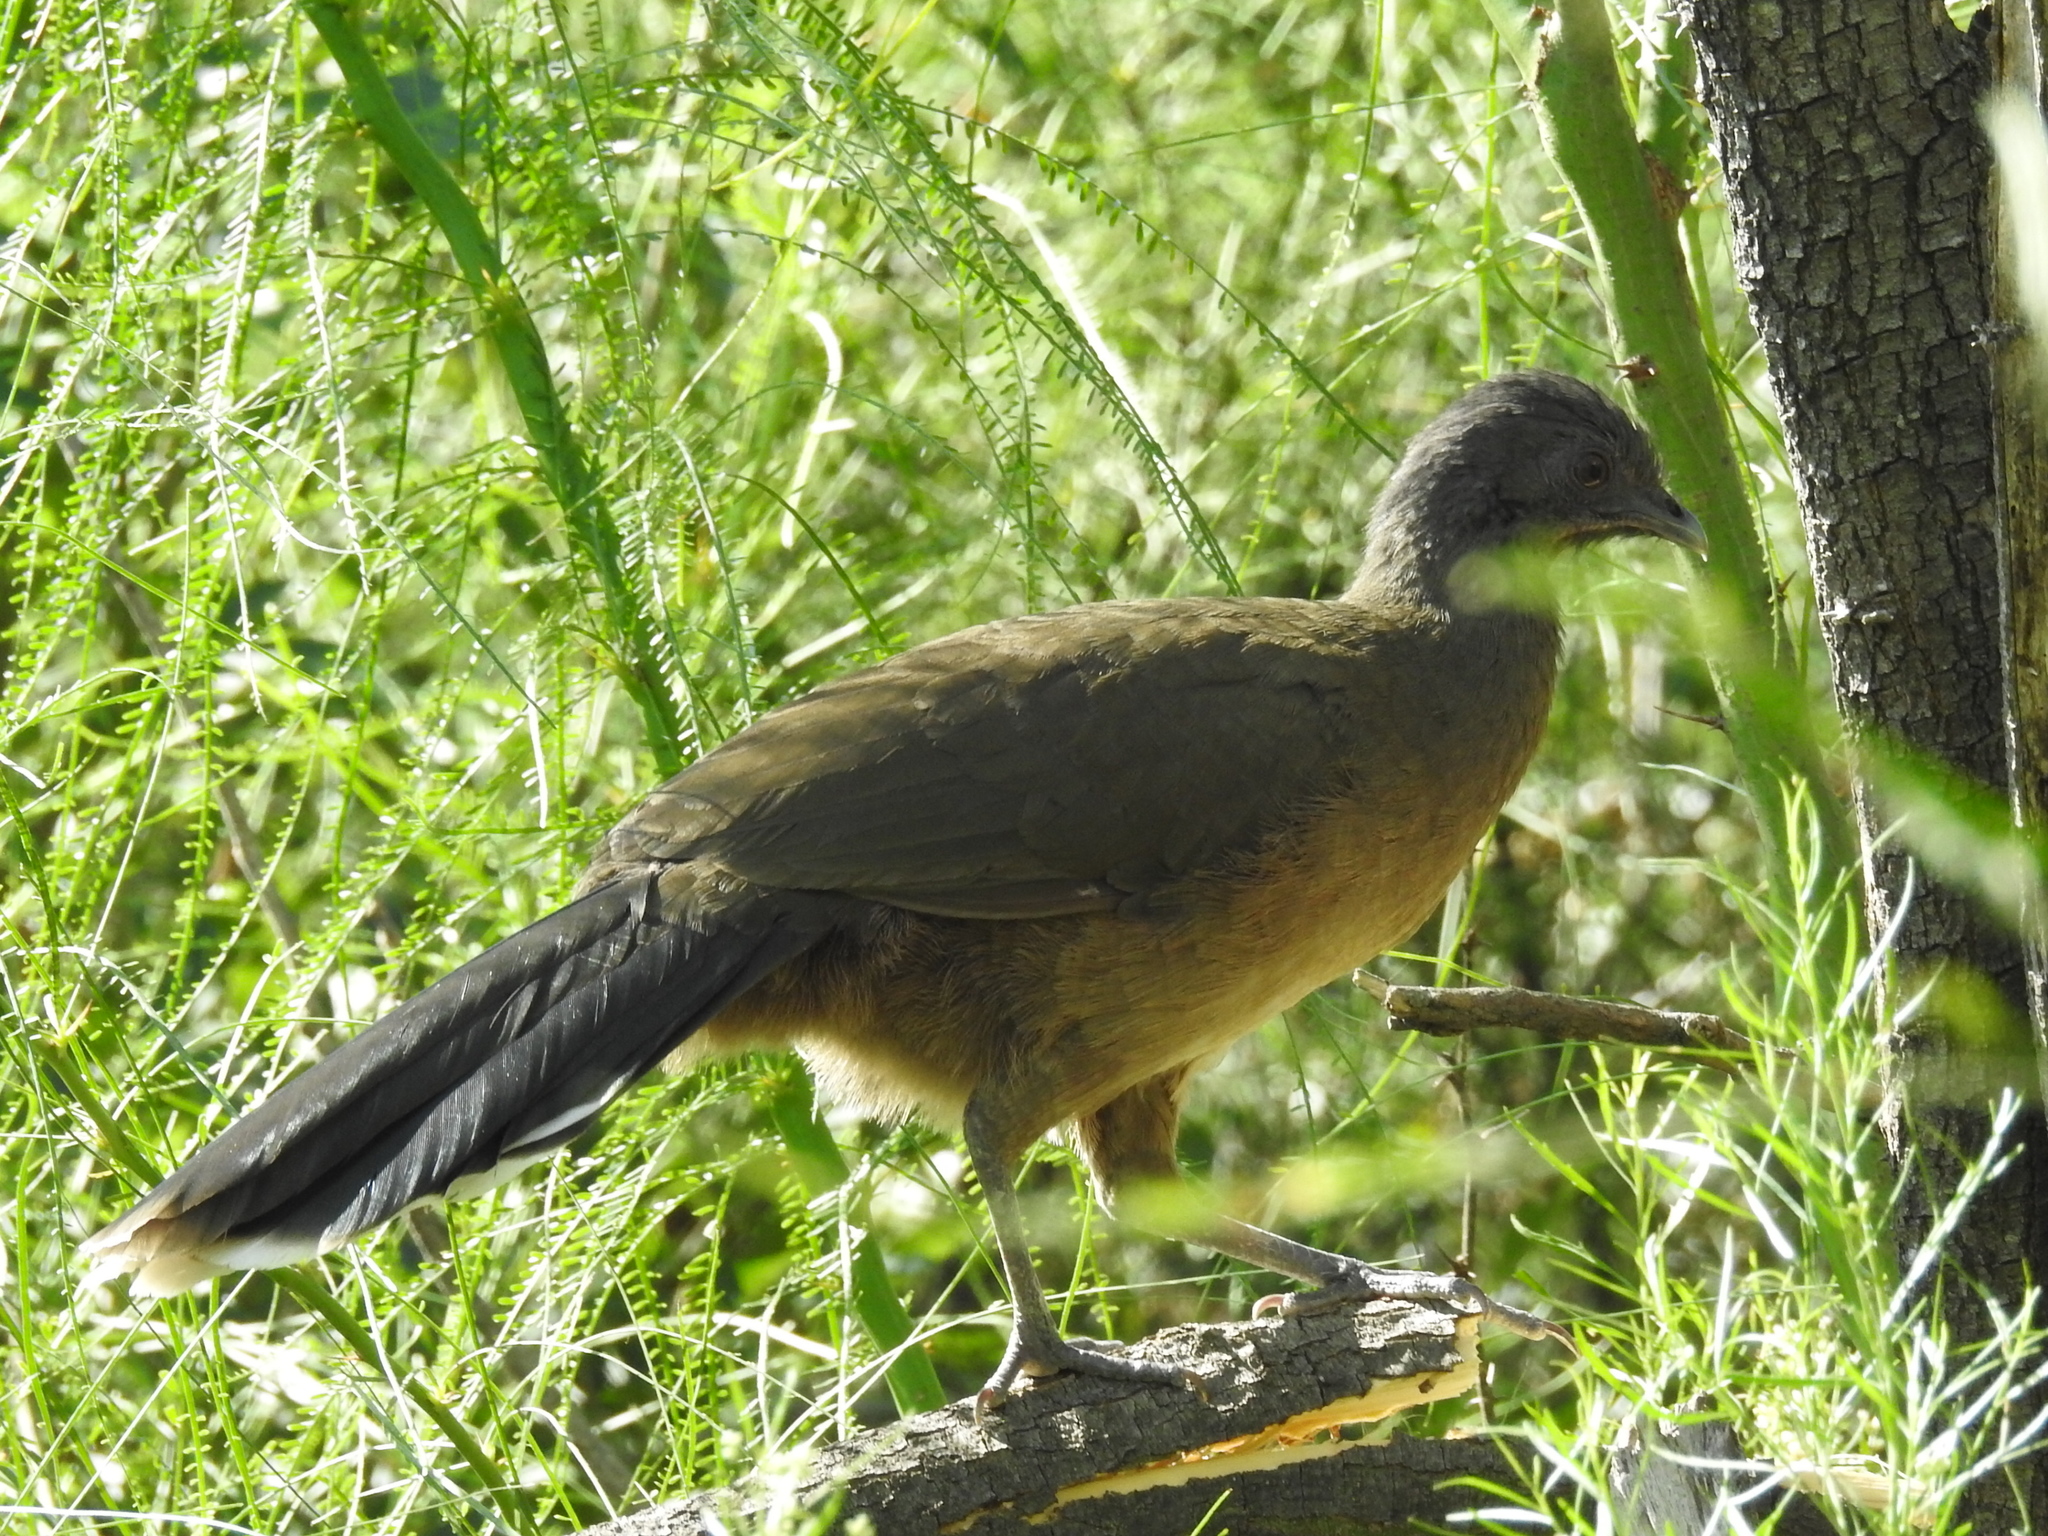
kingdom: Animalia
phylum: Chordata
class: Aves
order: Galliformes
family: Cracidae
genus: Ortalis
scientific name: Ortalis vetula
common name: Plain chachalaca
